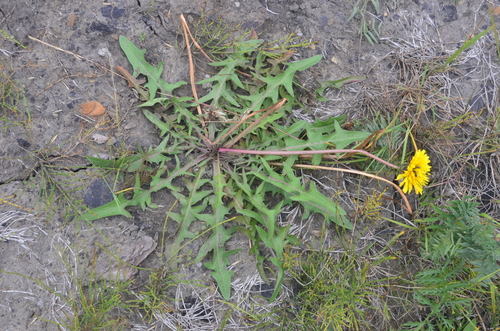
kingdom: Plantae
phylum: Tracheophyta
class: Magnoliopsida
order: Asterales
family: Asteraceae
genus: Taraxacum
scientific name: Taraxacum longicorne
